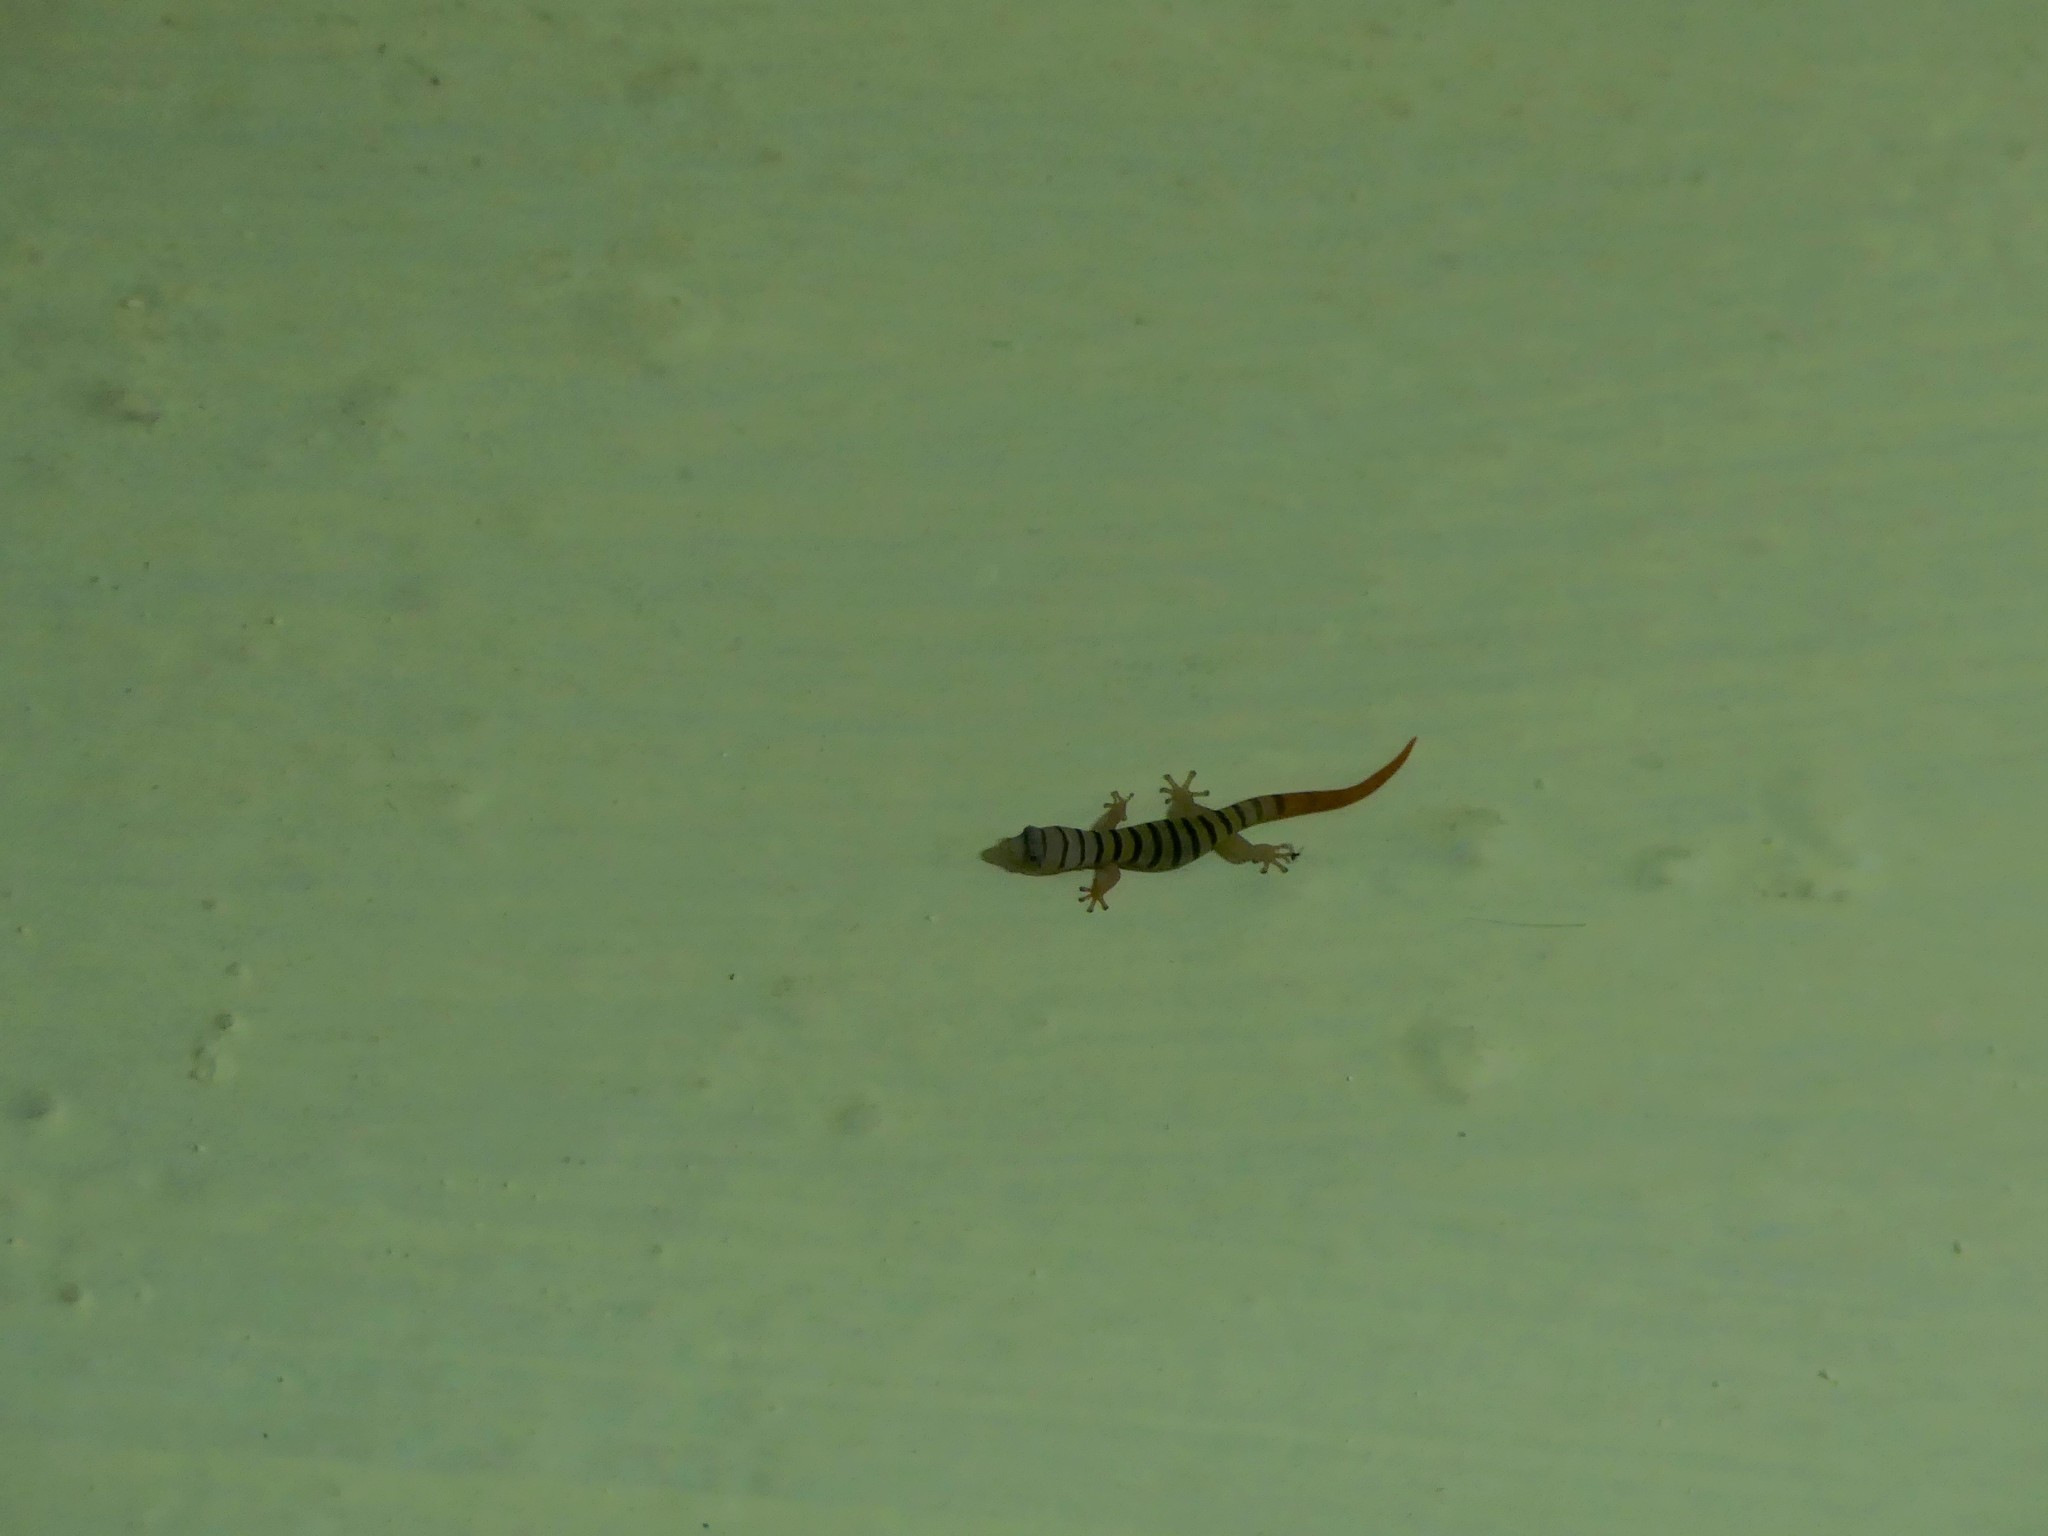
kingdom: Animalia
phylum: Chordata
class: Squamata
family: Sphaerodactylidae
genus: Sphaerodactylus
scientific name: Sphaerodactylus elegans
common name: Ashy gecko
